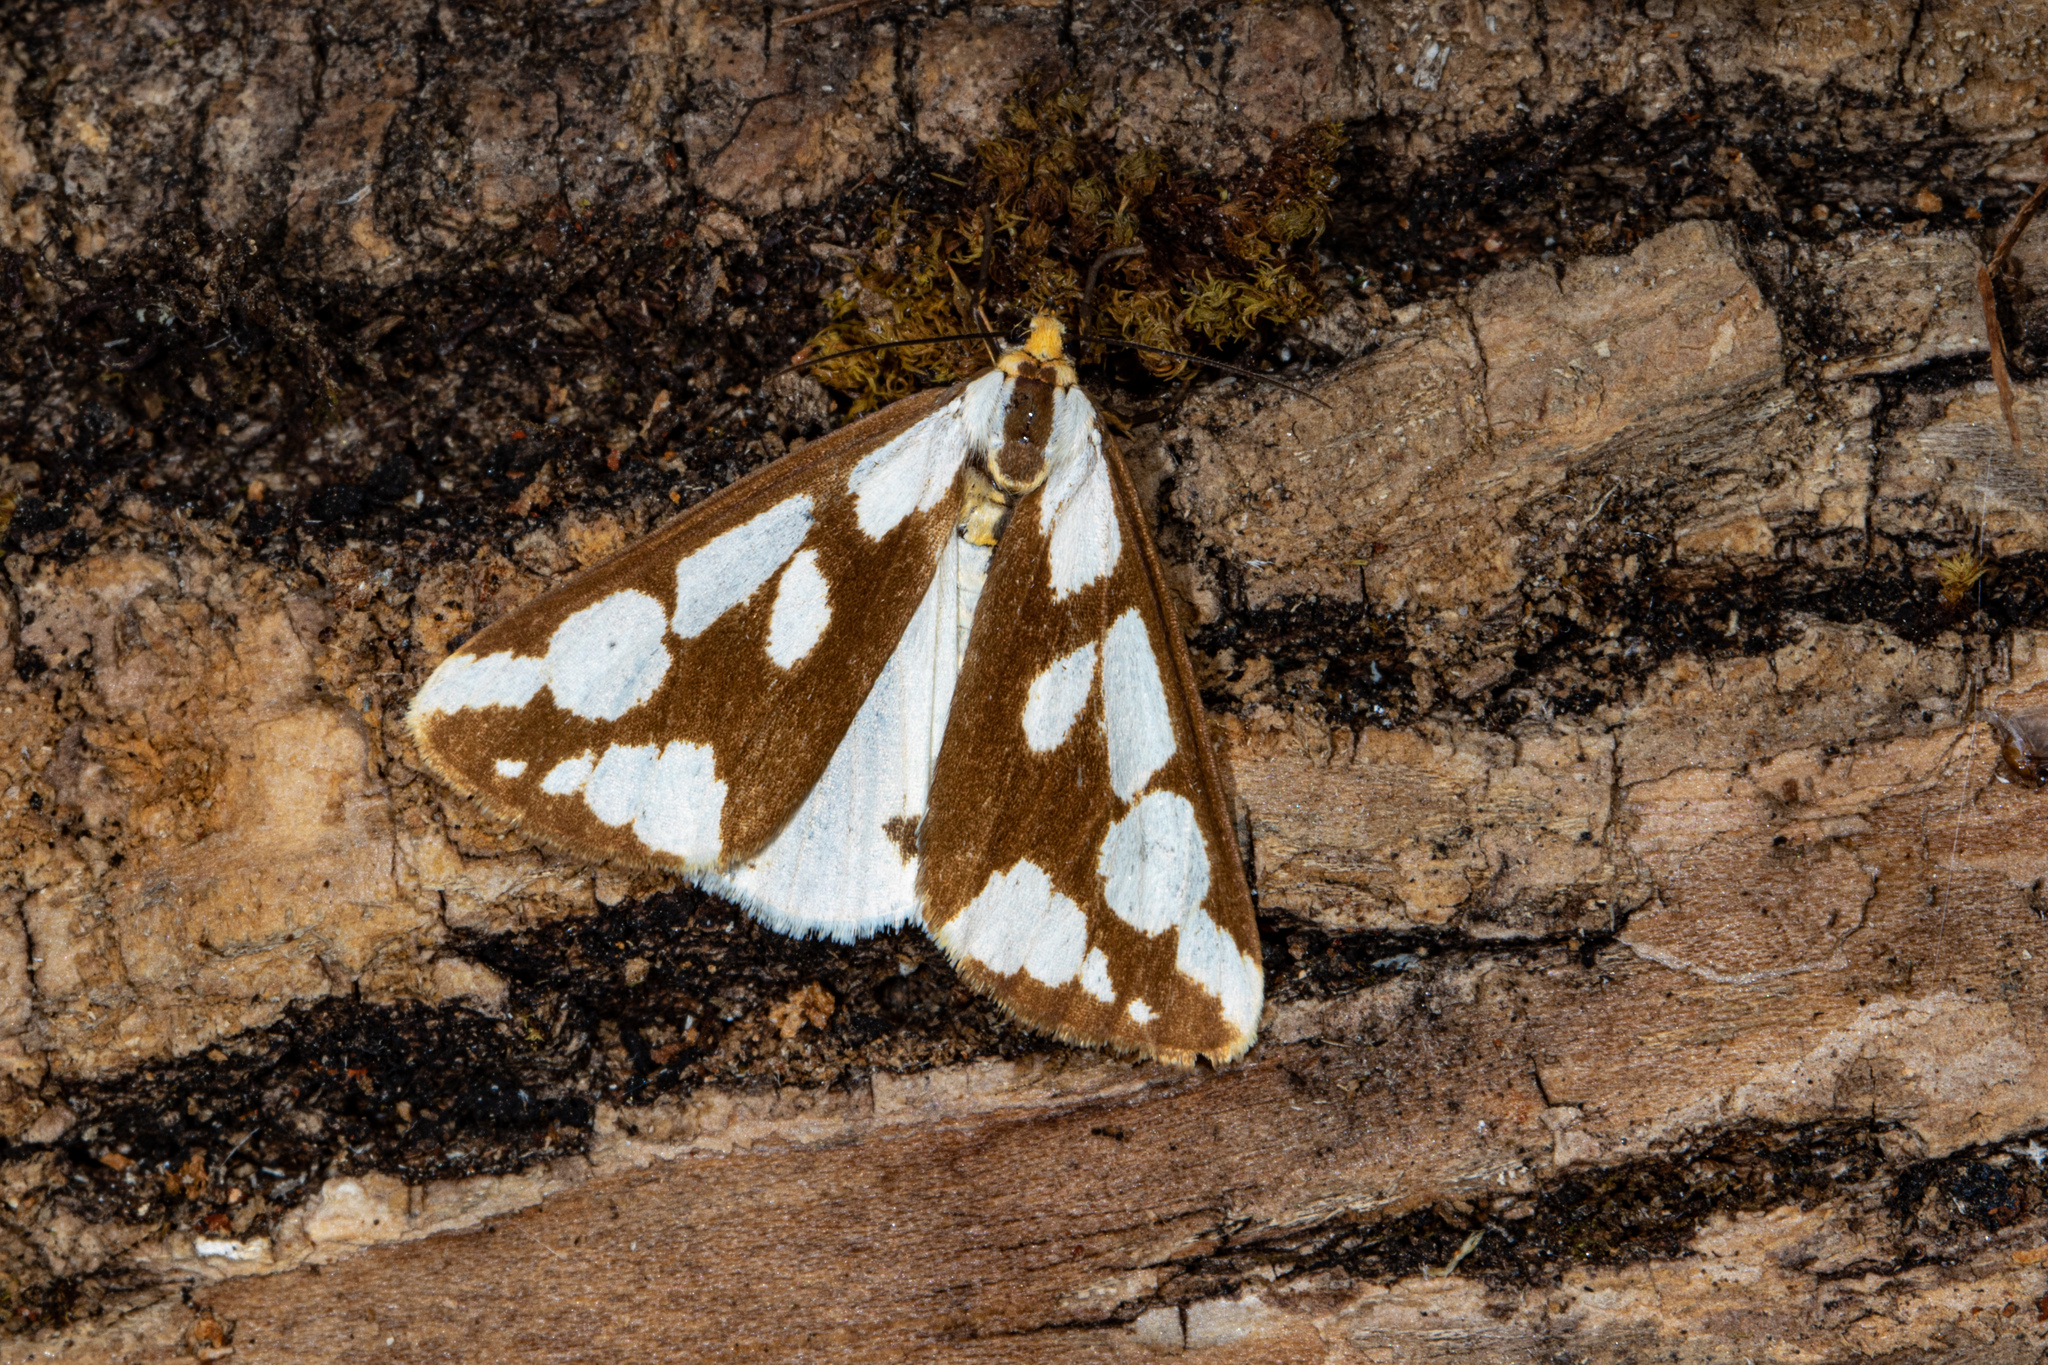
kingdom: Animalia
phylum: Arthropoda
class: Insecta
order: Lepidoptera
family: Erebidae
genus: Haploa
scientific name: Haploa confusa
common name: Confused haploa moth
